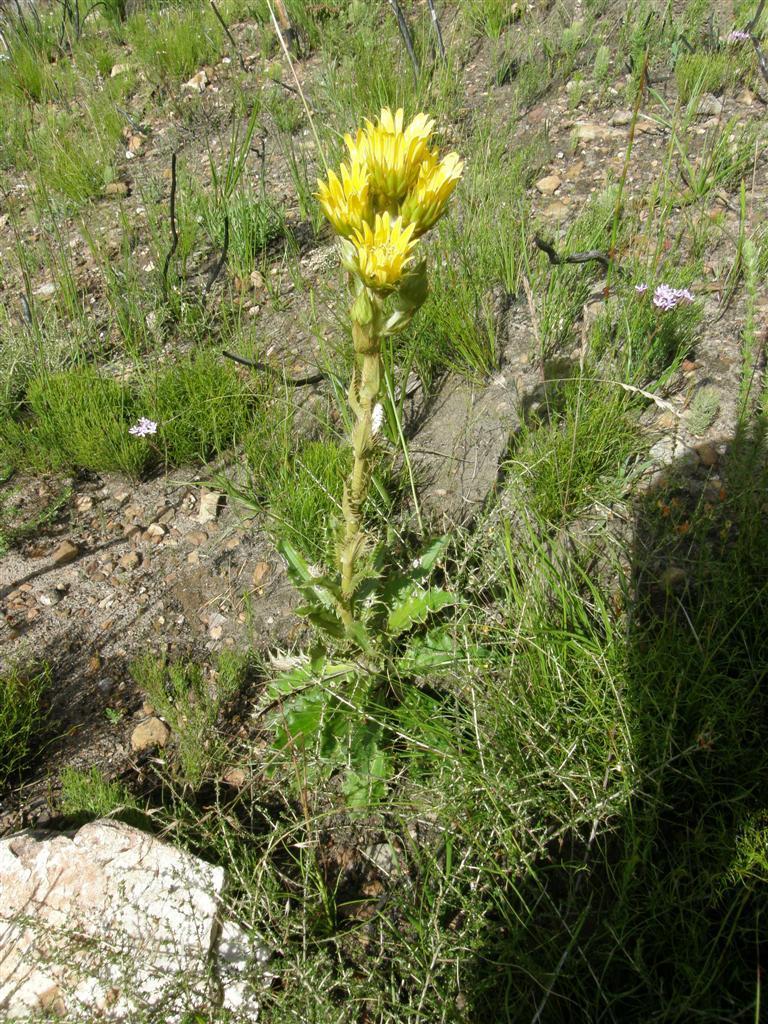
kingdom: Plantae
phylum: Tracheophyta
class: Magnoliopsida
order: Asterales
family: Asteraceae
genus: Berkheya
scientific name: Berkheya armata
